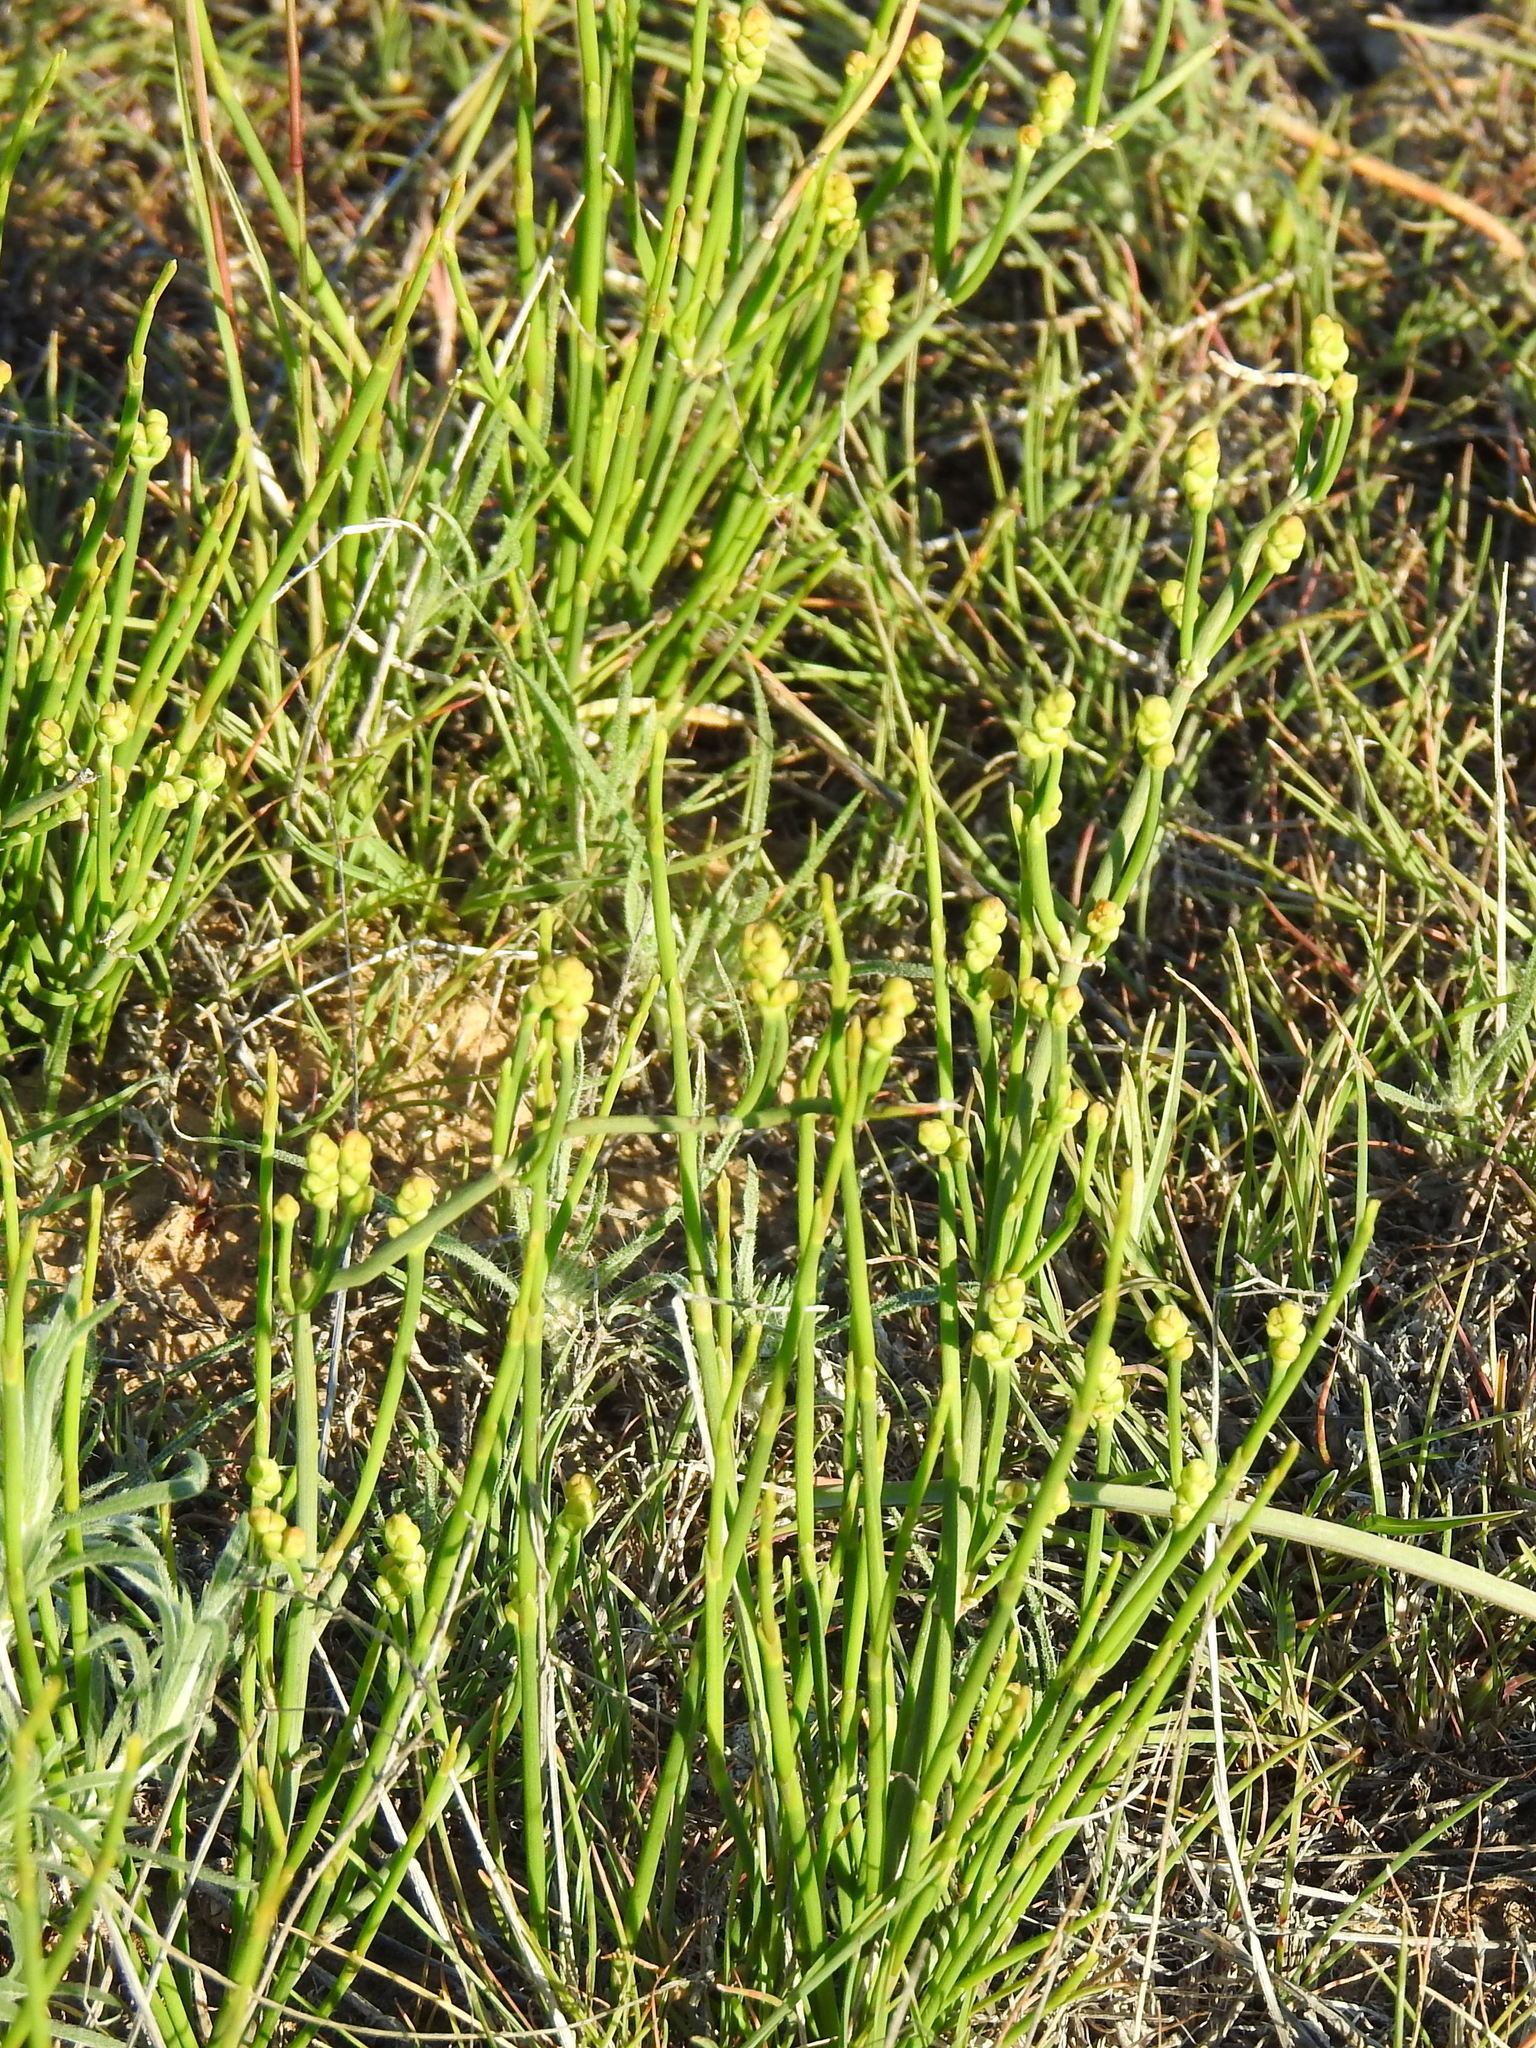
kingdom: Plantae
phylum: Tracheophyta
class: Gnetopsida
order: Ephedrales
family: Ephedraceae
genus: Ephedra
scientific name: Ephedra distachya
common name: Sea grape
